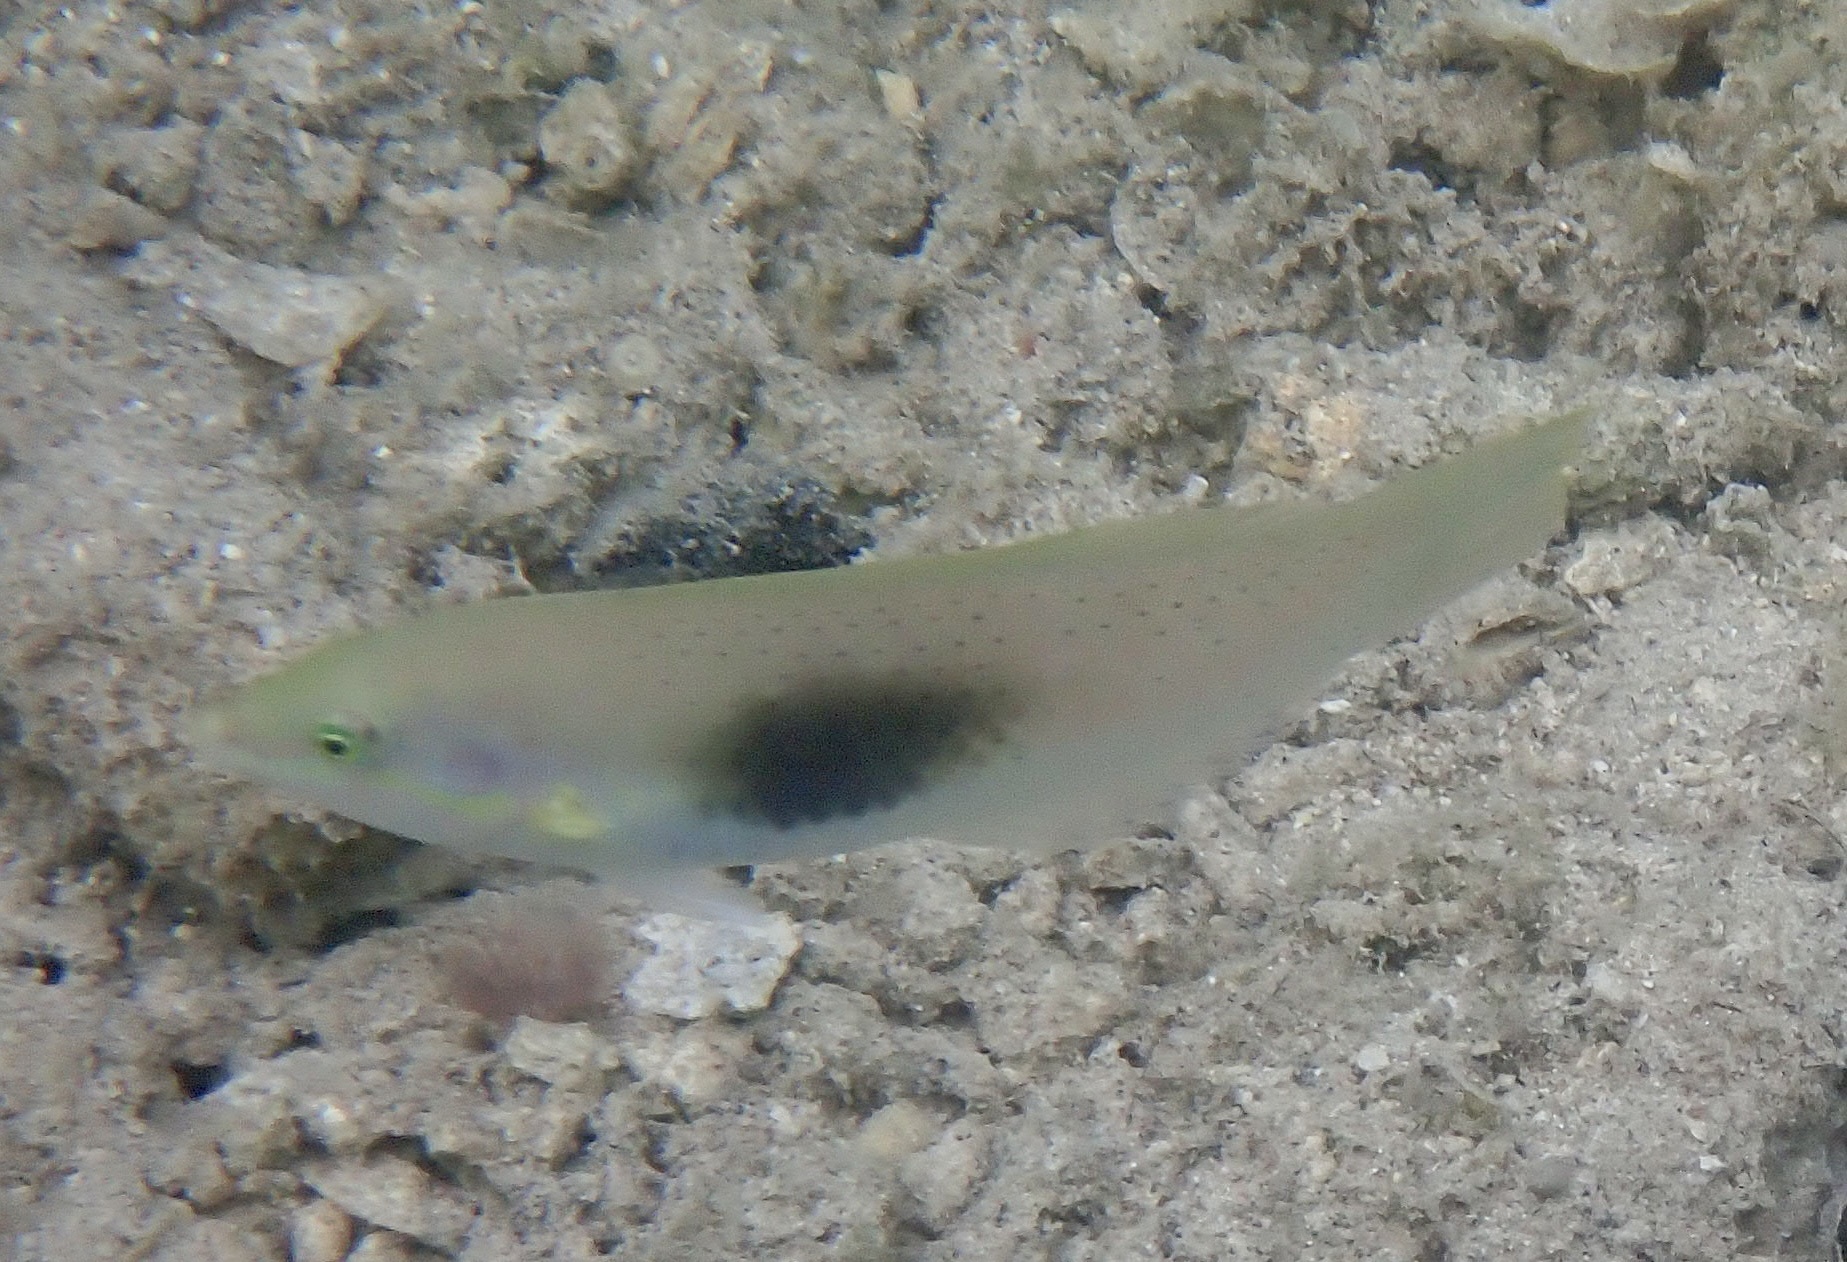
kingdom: Animalia
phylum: Chordata
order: Perciformes
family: Labridae
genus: Halichoeres
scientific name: Halichoeres chloropterus
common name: Pastel-green wrasse
